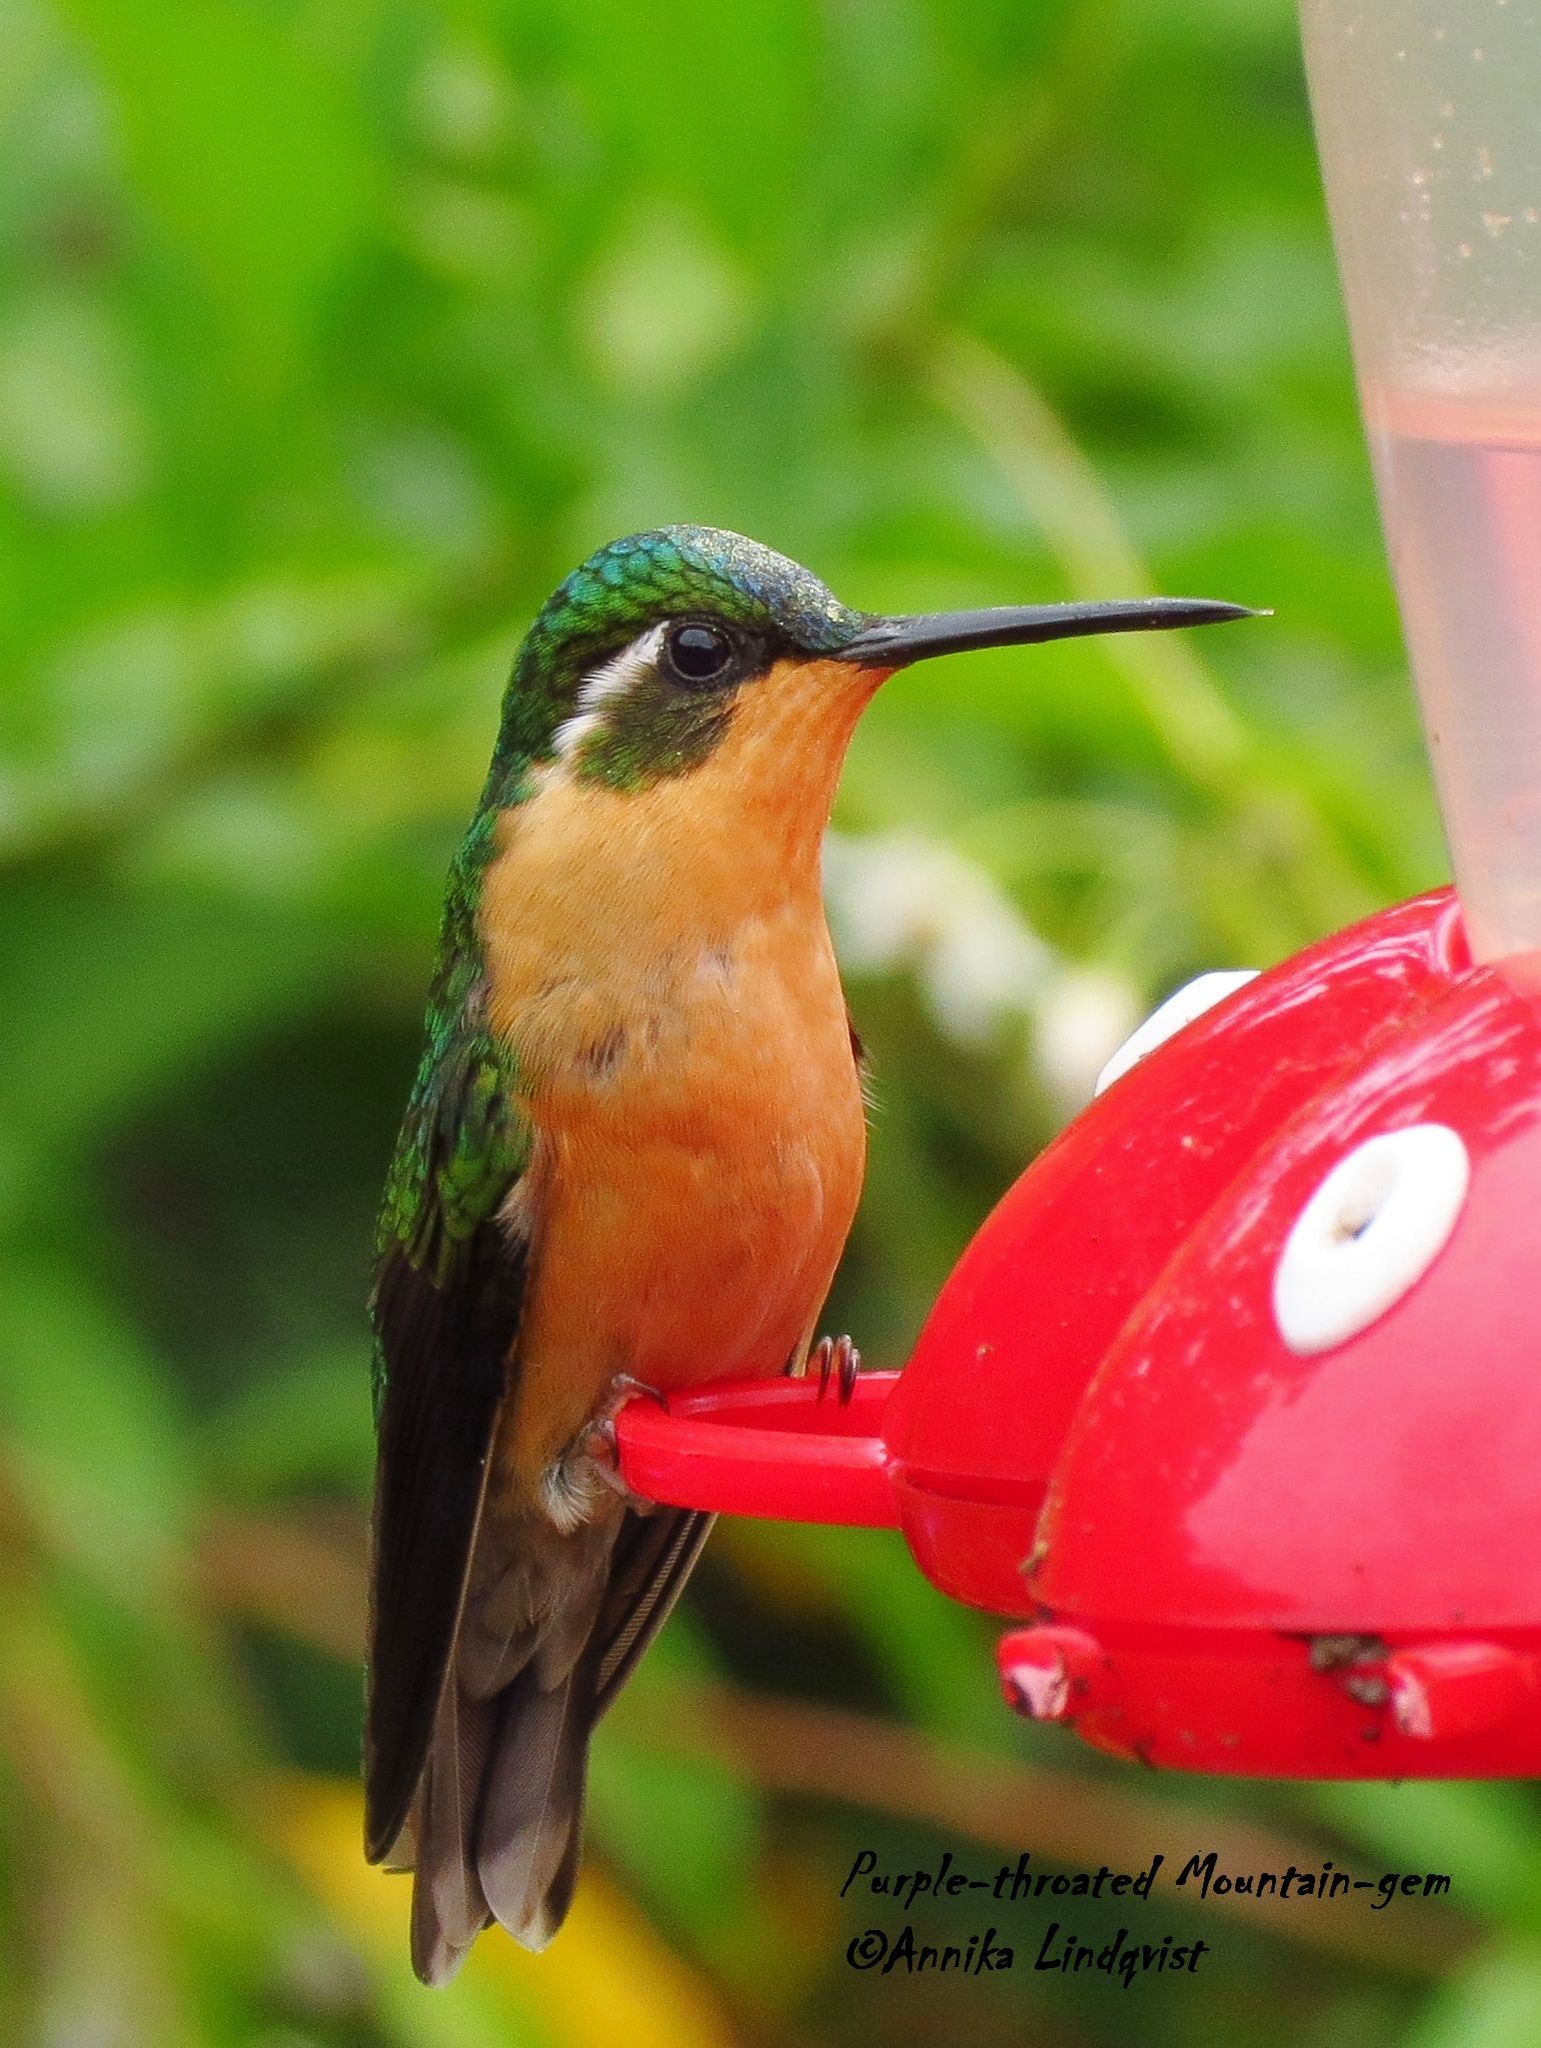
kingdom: Animalia
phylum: Chordata
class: Aves
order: Apodiformes
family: Trochilidae
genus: Lampornis
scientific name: Lampornis castaneoventris
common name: White-throated mountain-gem
